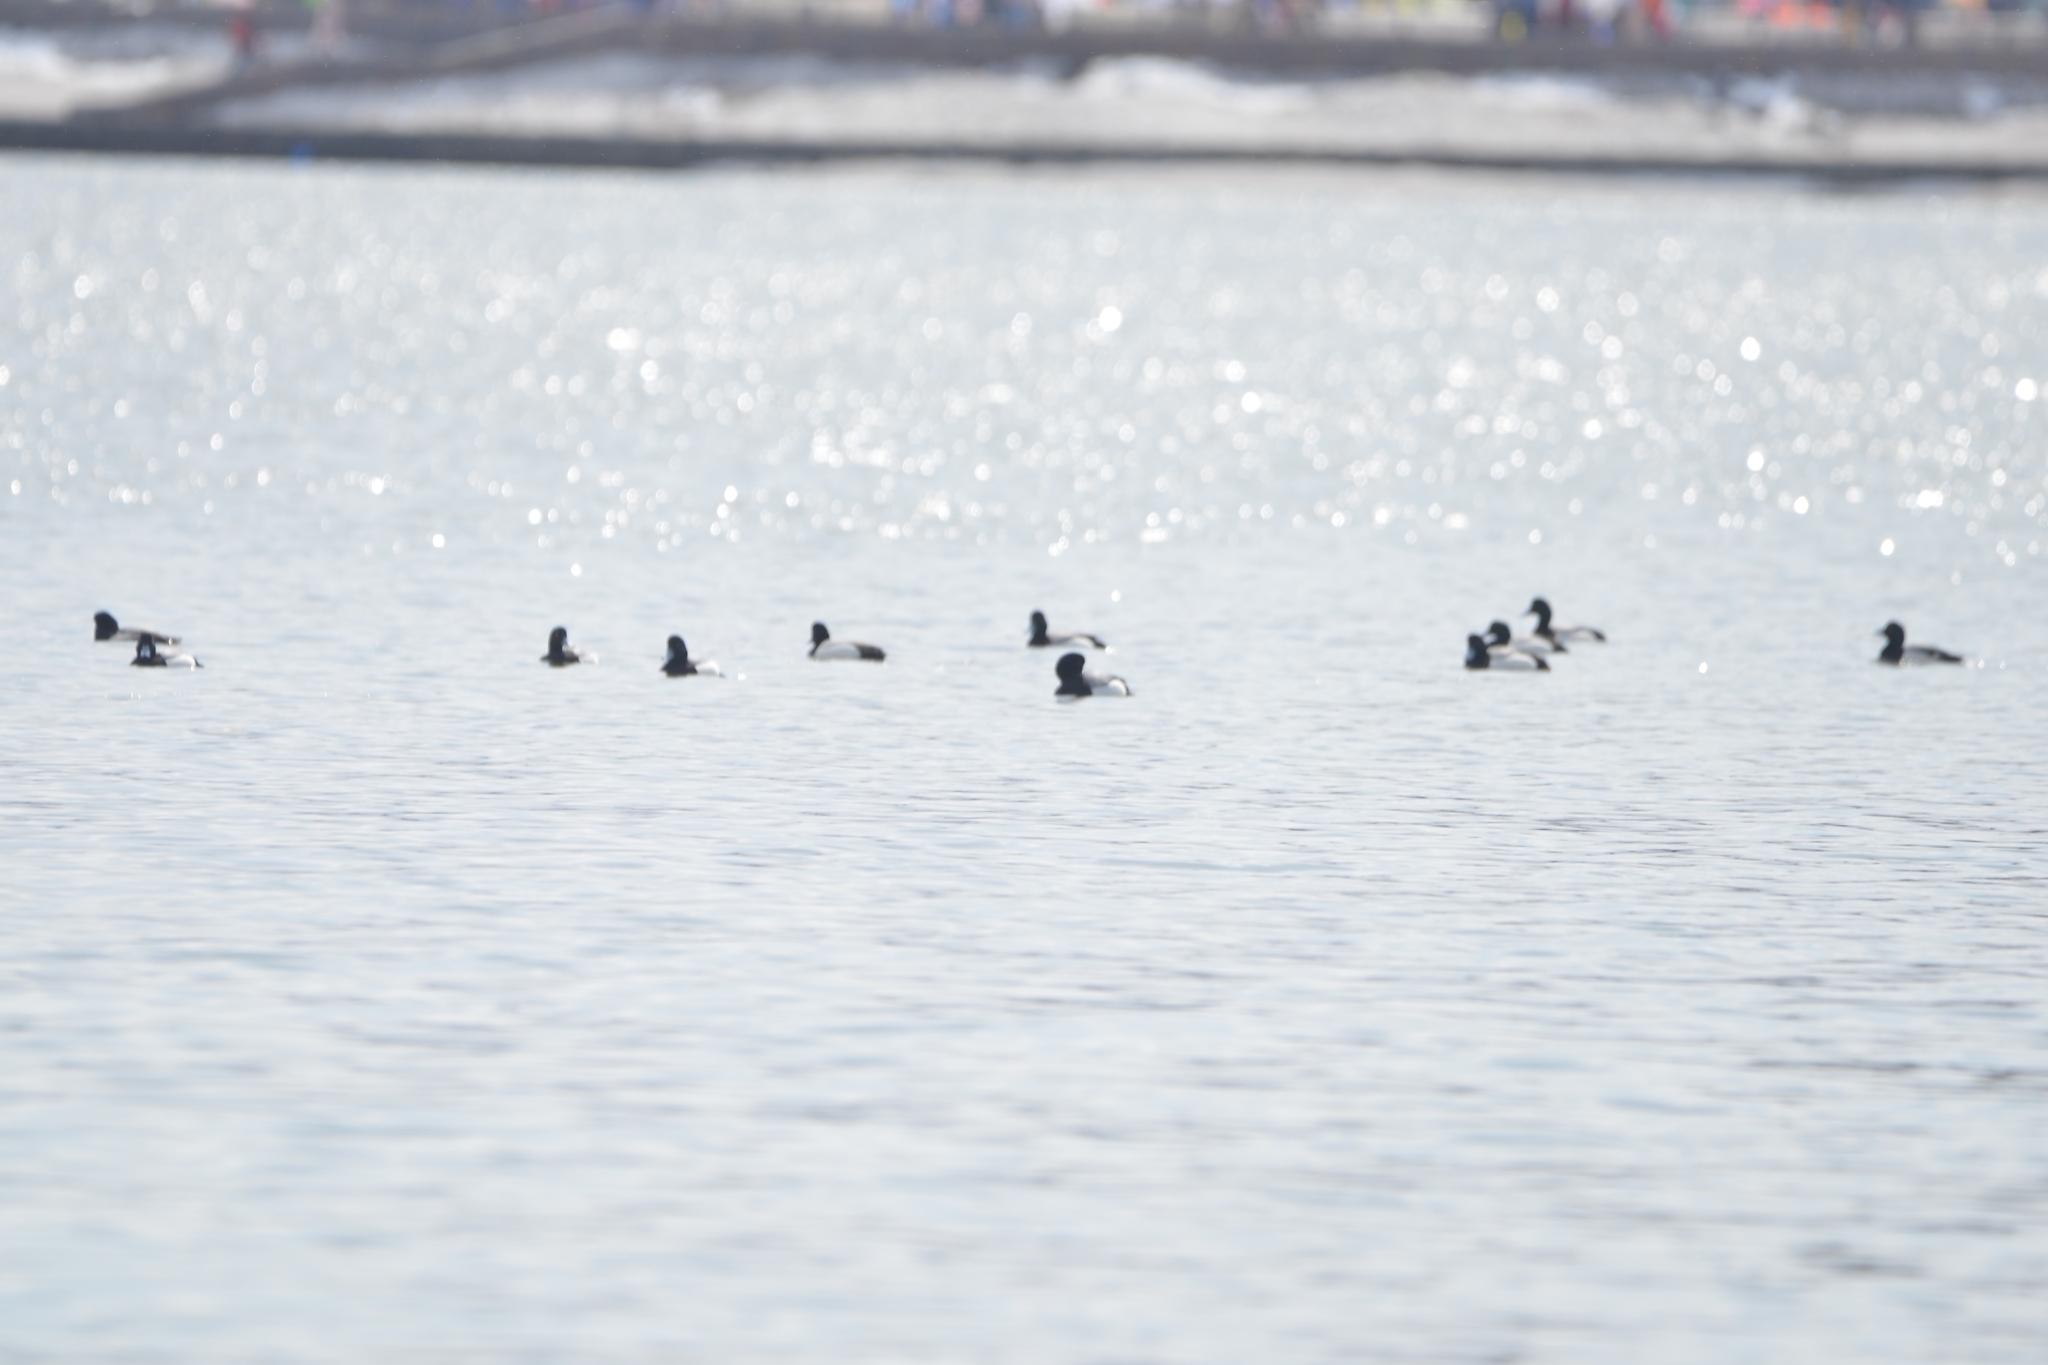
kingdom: Animalia
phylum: Chordata
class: Aves
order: Anseriformes
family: Anatidae
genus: Aythya
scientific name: Aythya marila
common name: Greater scaup
